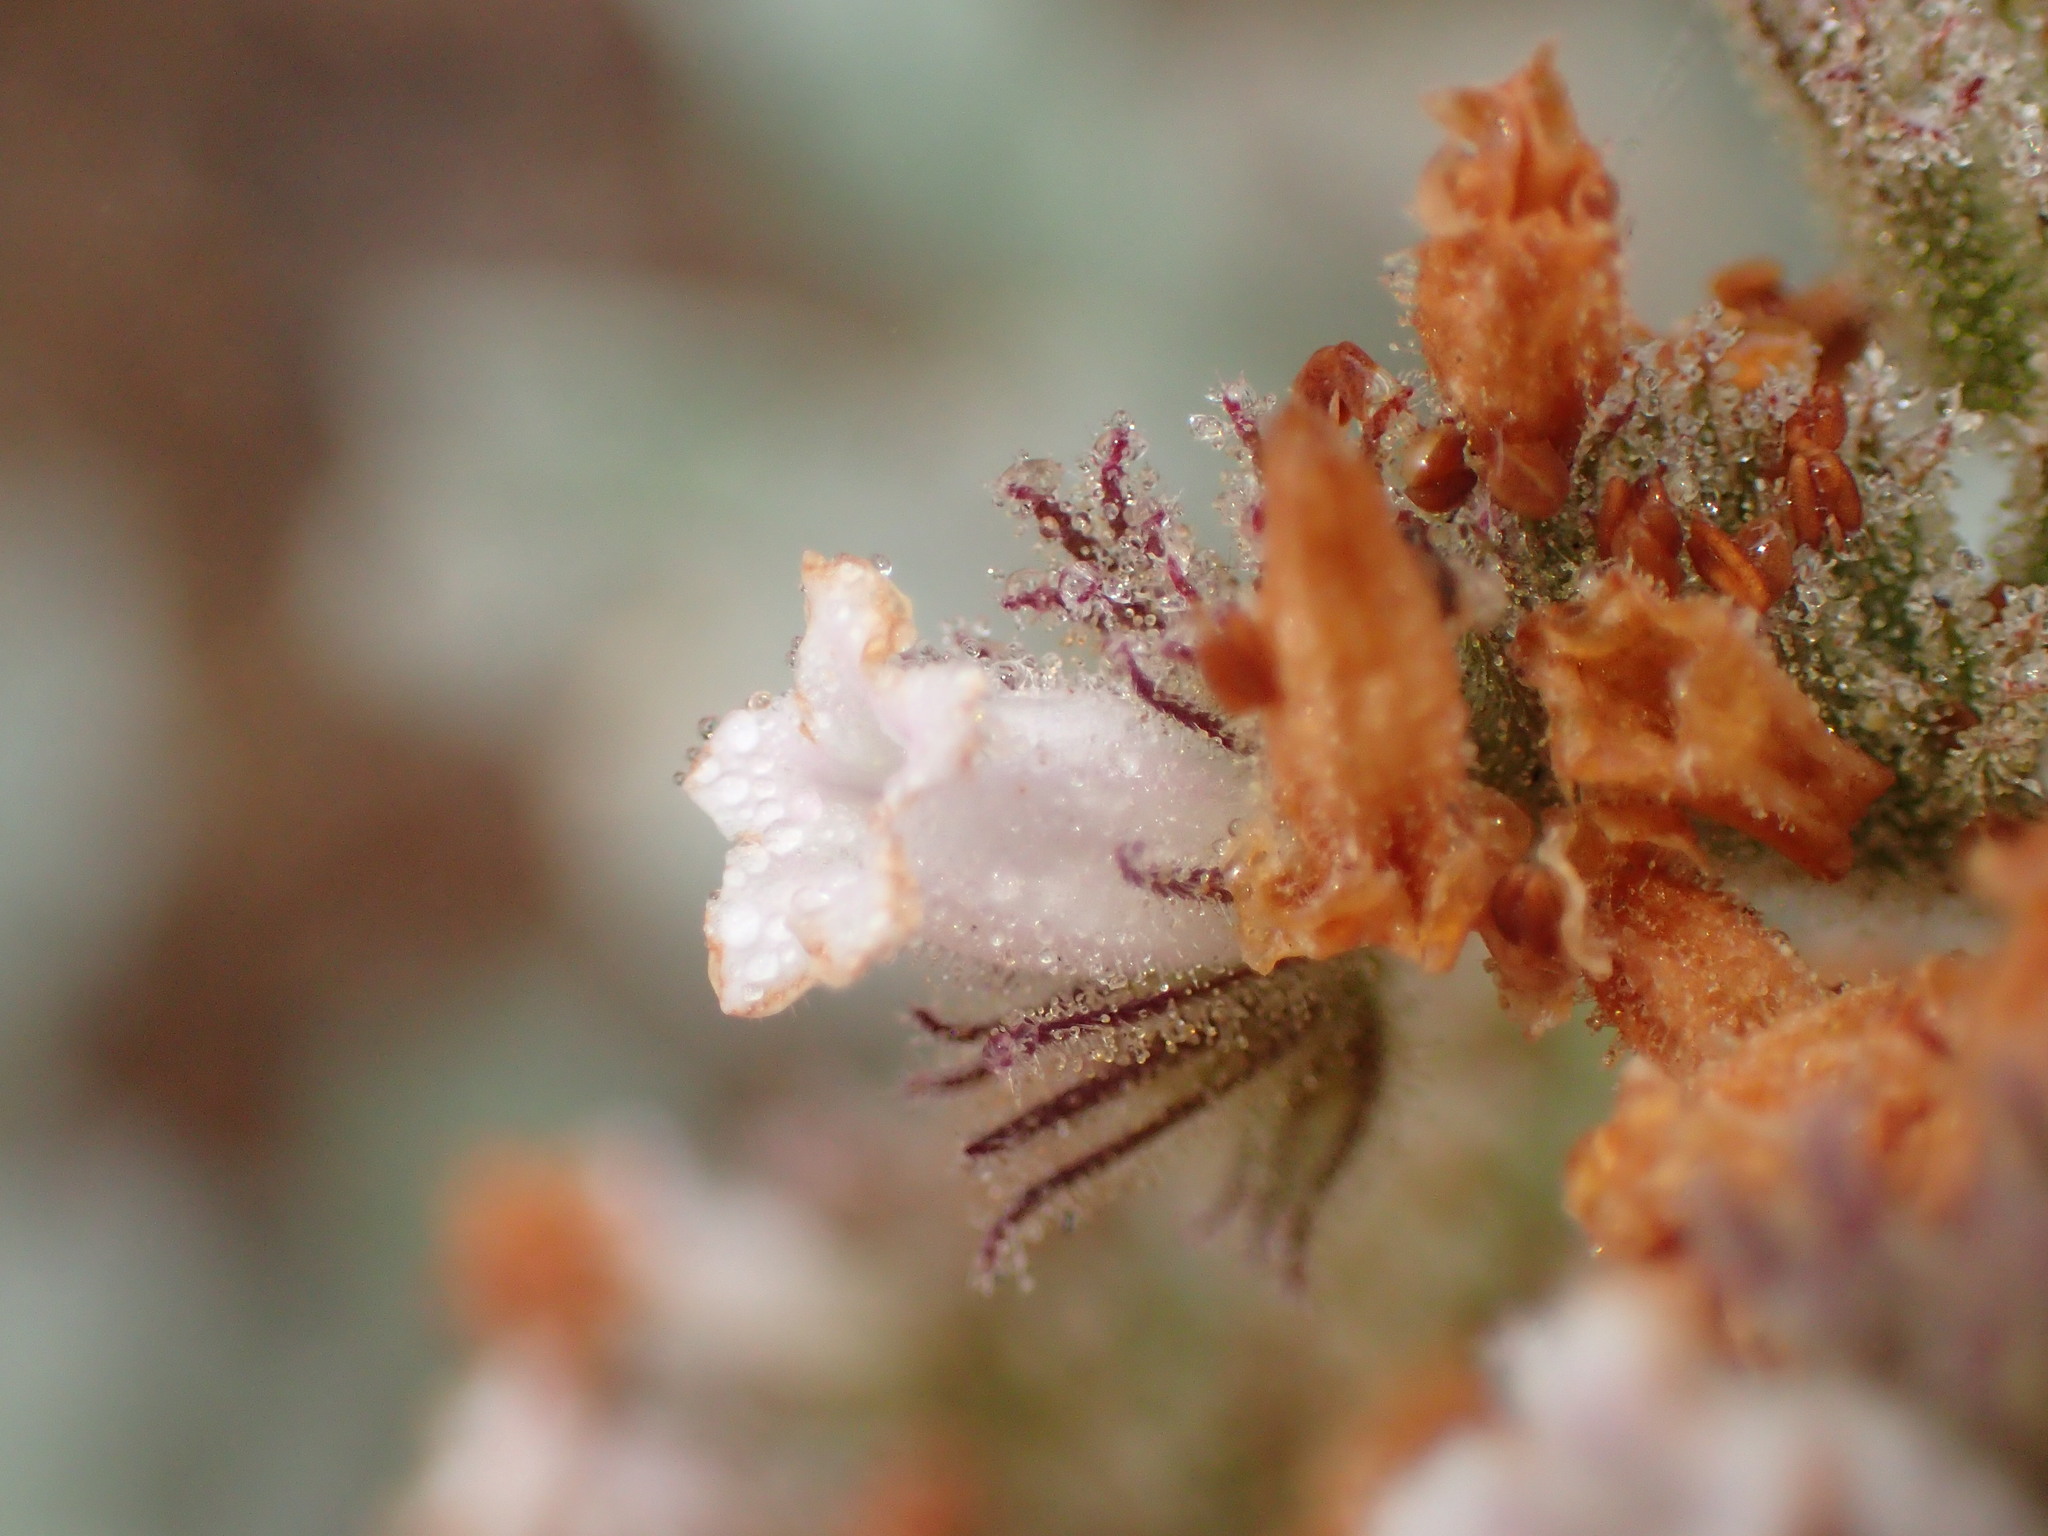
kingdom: Plantae
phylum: Tracheophyta
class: Magnoliopsida
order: Boraginales
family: Namaceae
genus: Eriodictyon
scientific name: Eriodictyon traskiae
